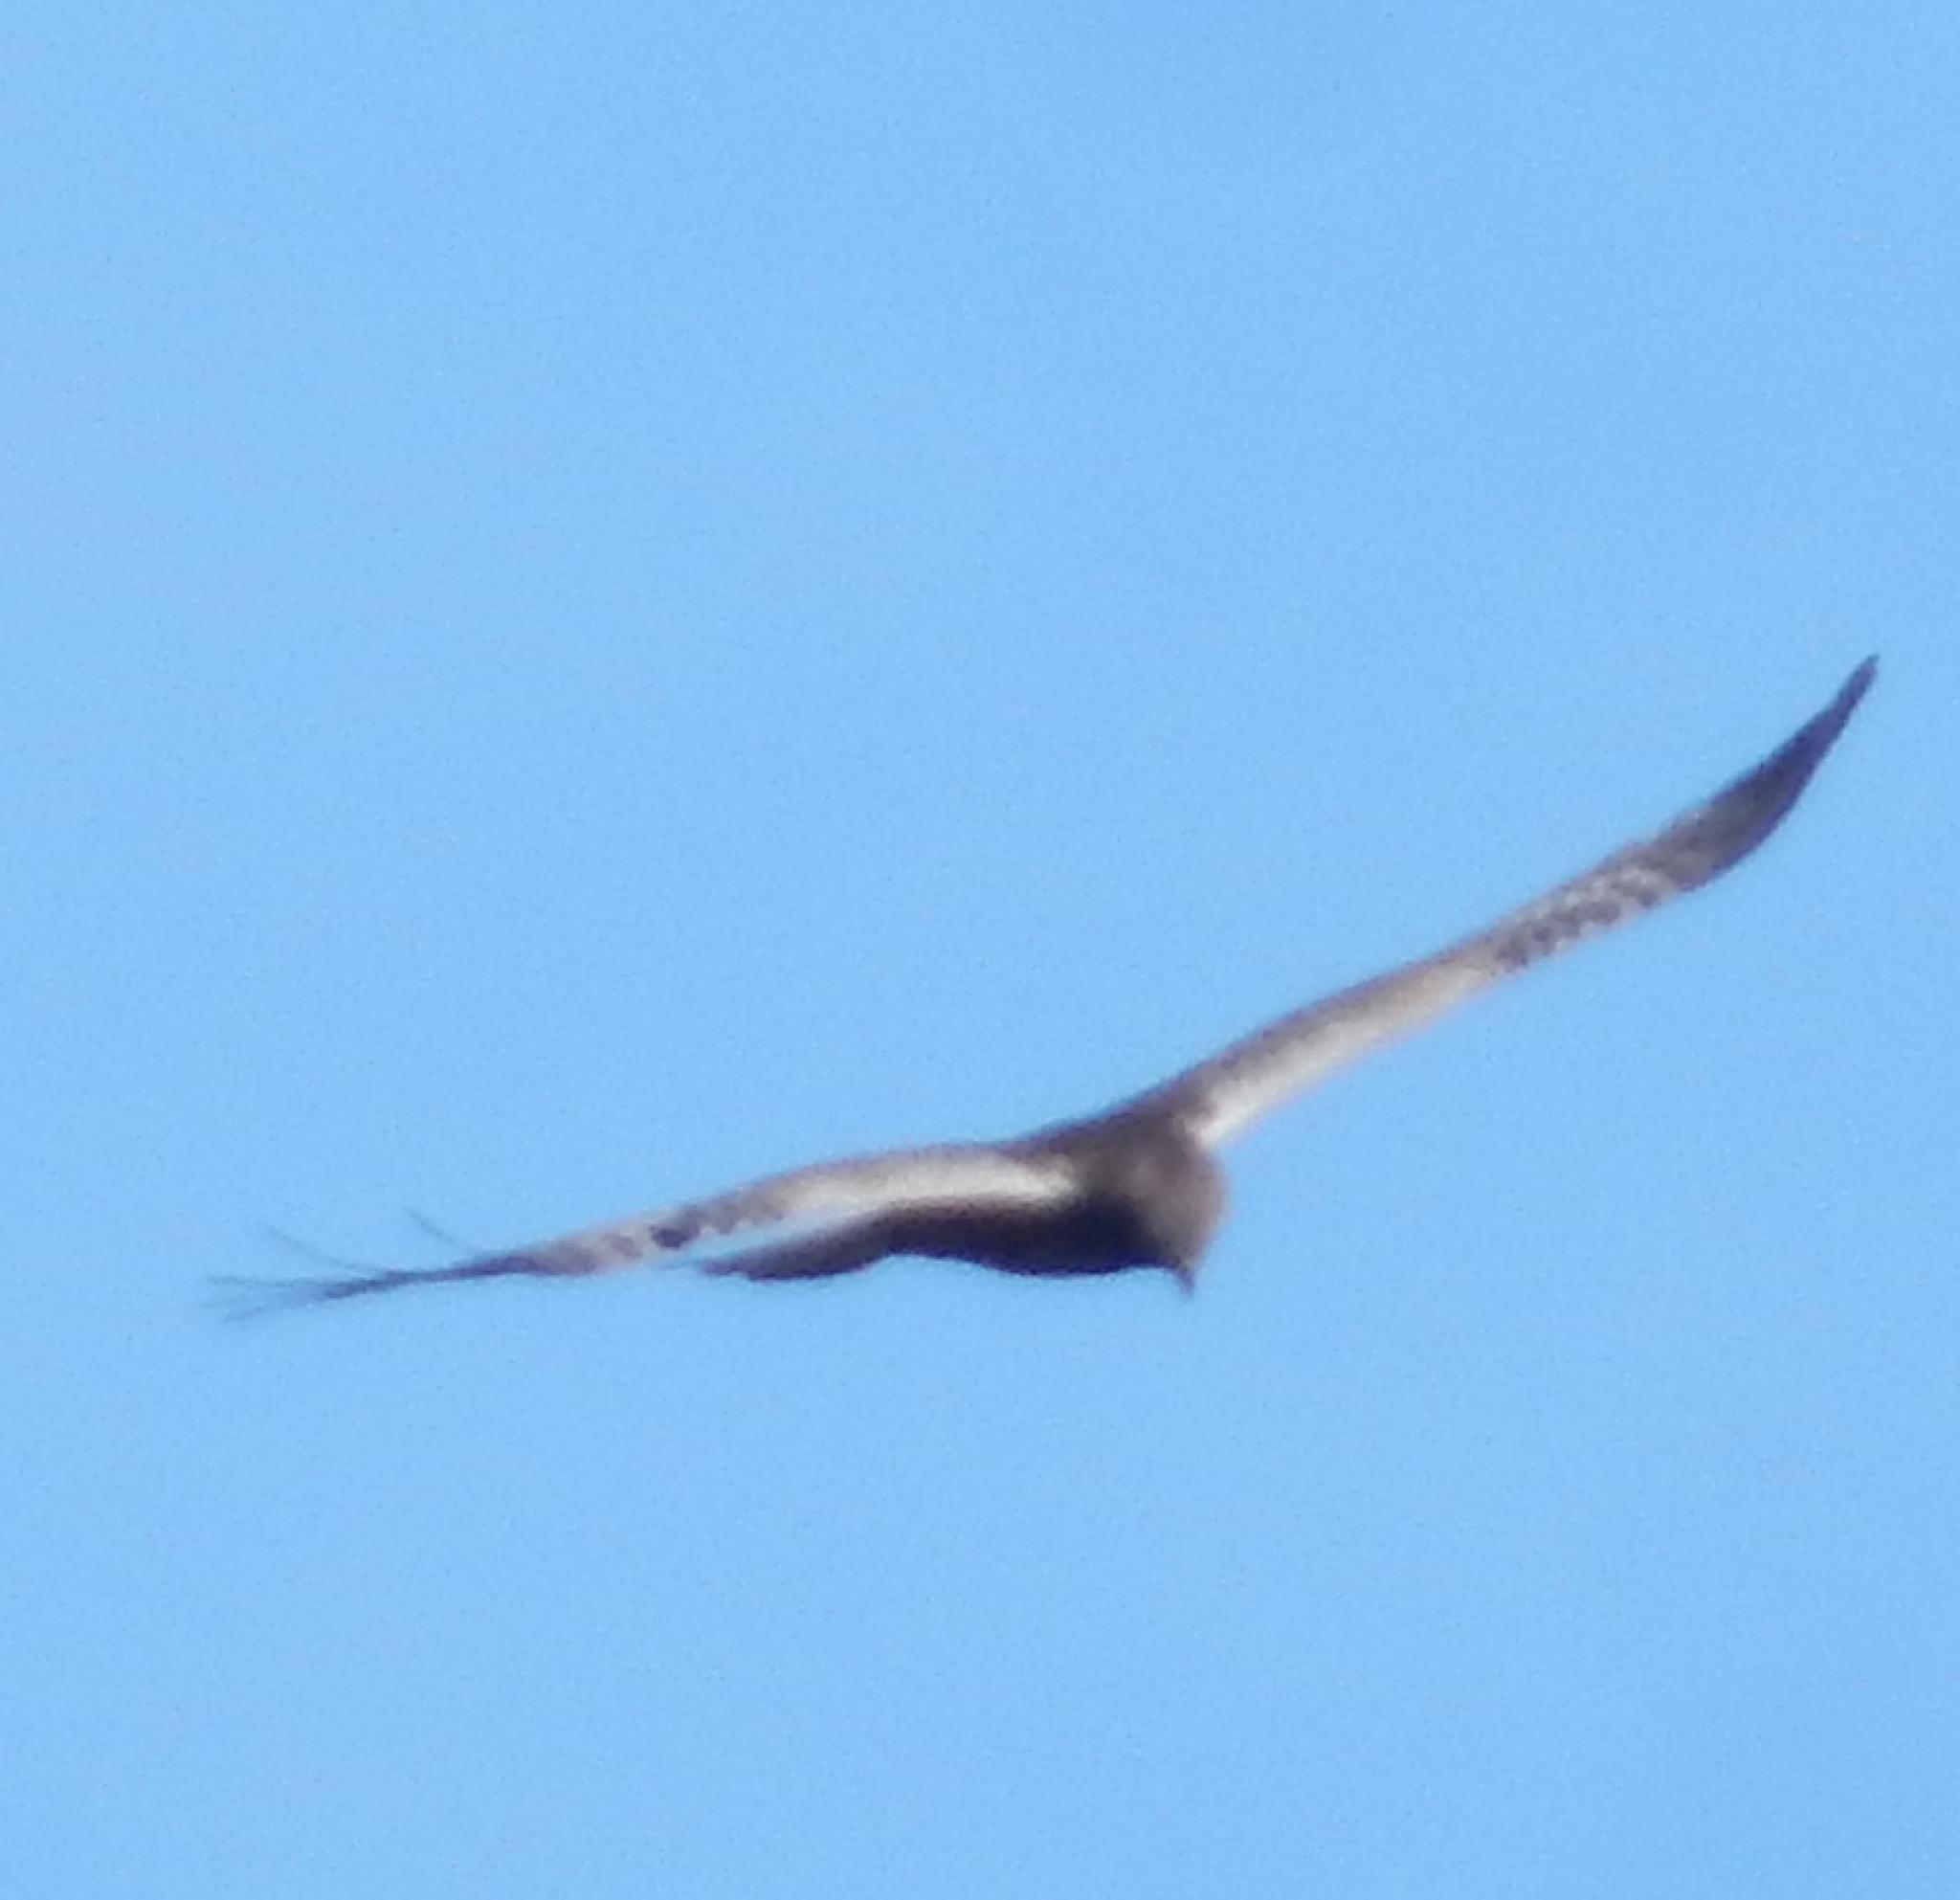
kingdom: Animalia
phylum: Chordata
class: Aves
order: Accipitriformes
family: Accipitridae
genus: Circus
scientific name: Circus ranivorus
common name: African marsh-harrier
